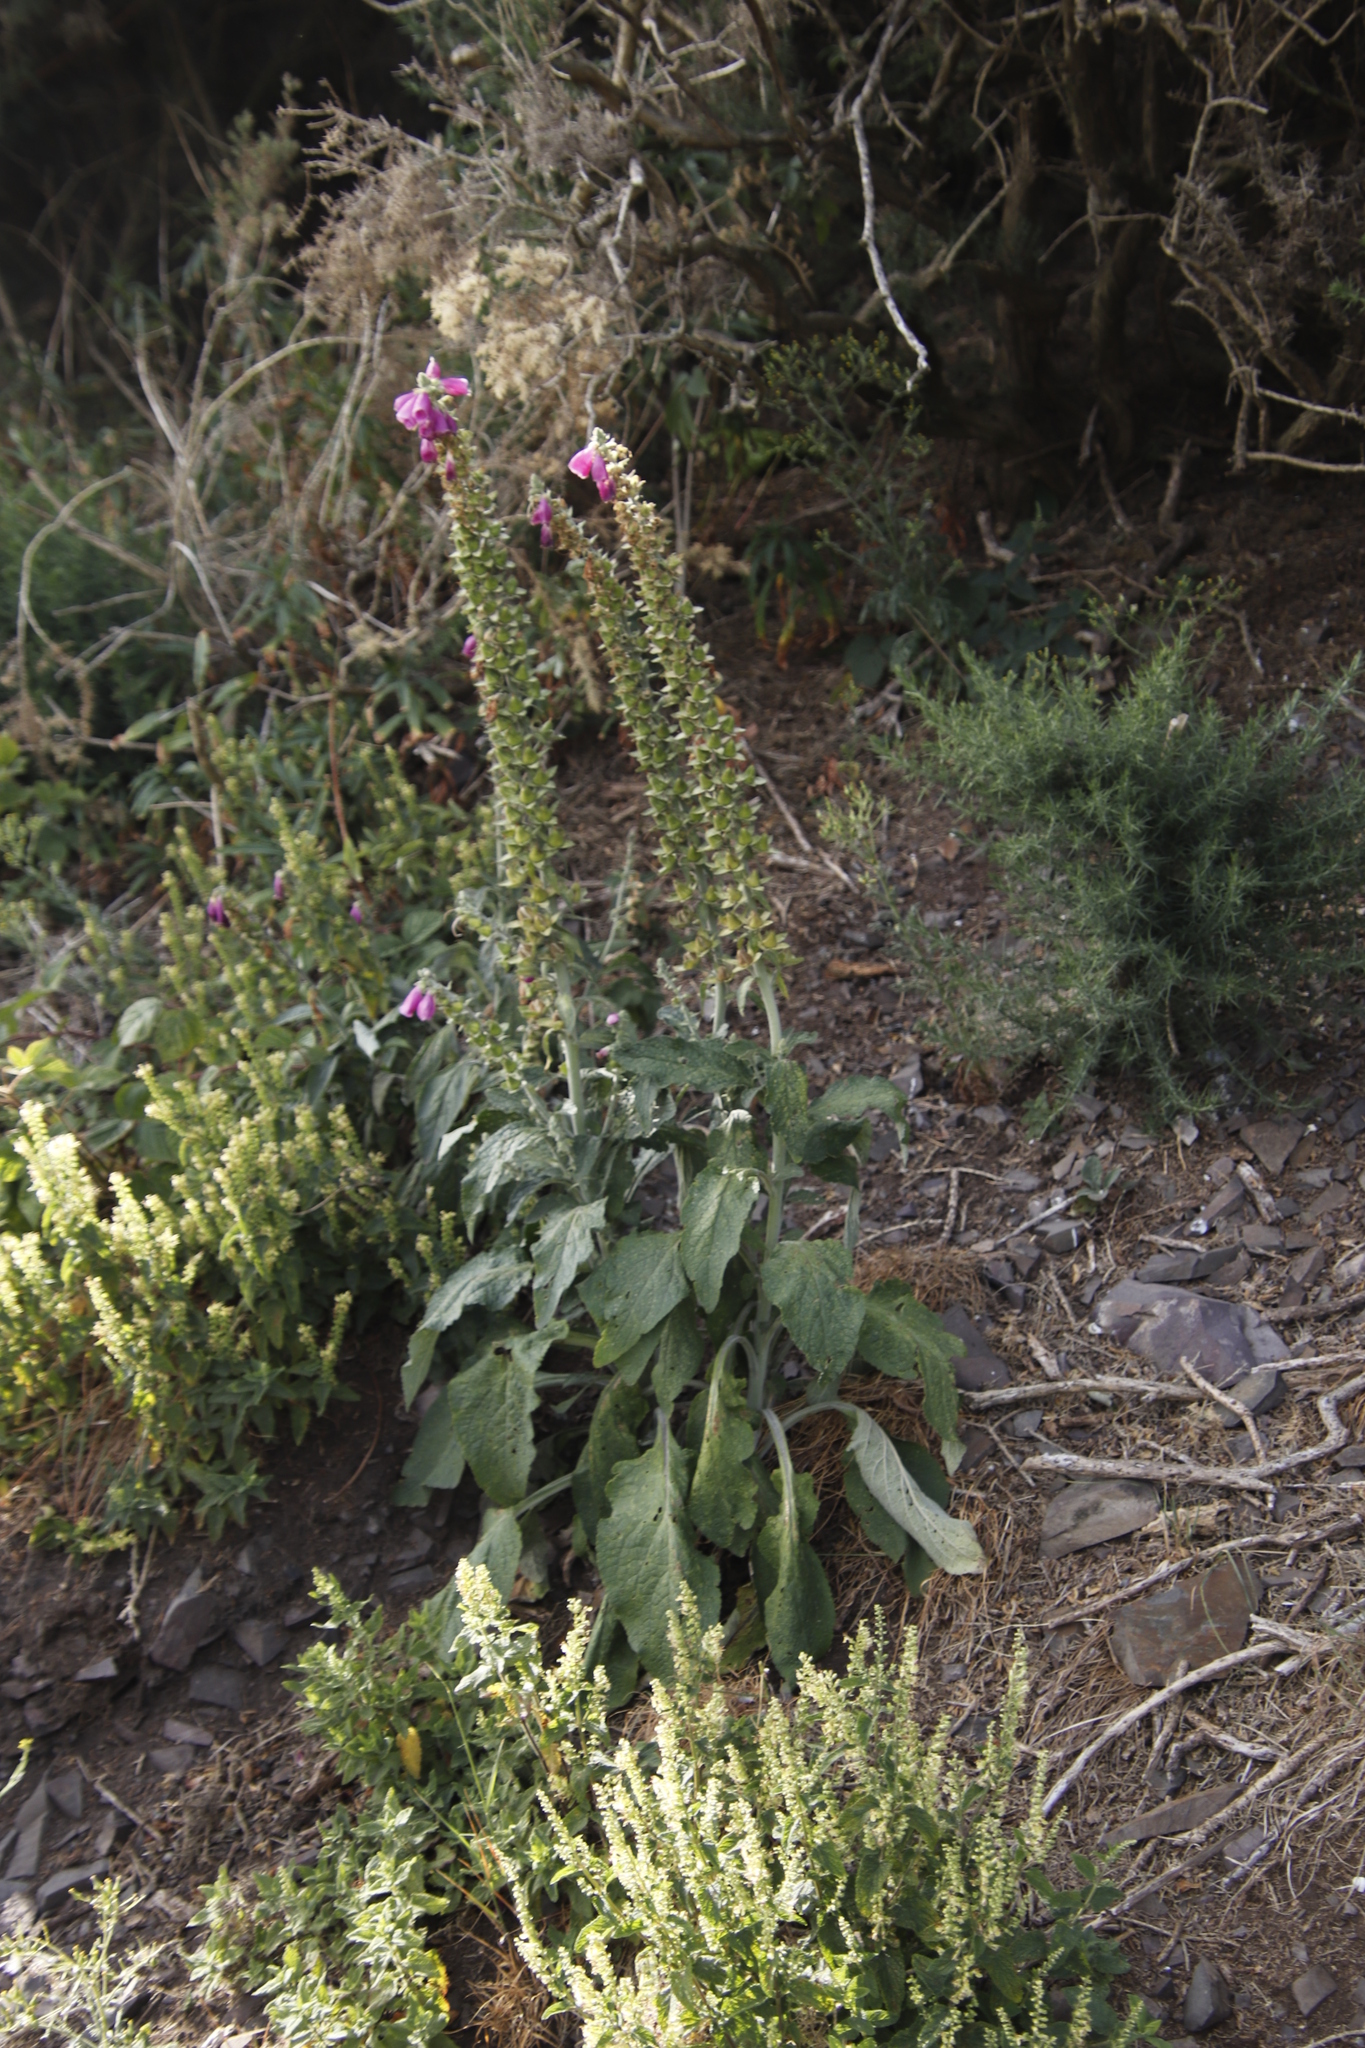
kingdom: Plantae
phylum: Tracheophyta
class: Magnoliopsida
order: Lamiales
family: Plantaginaceae
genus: Digitalis
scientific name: Digitalis purpurea
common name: Foxglove
